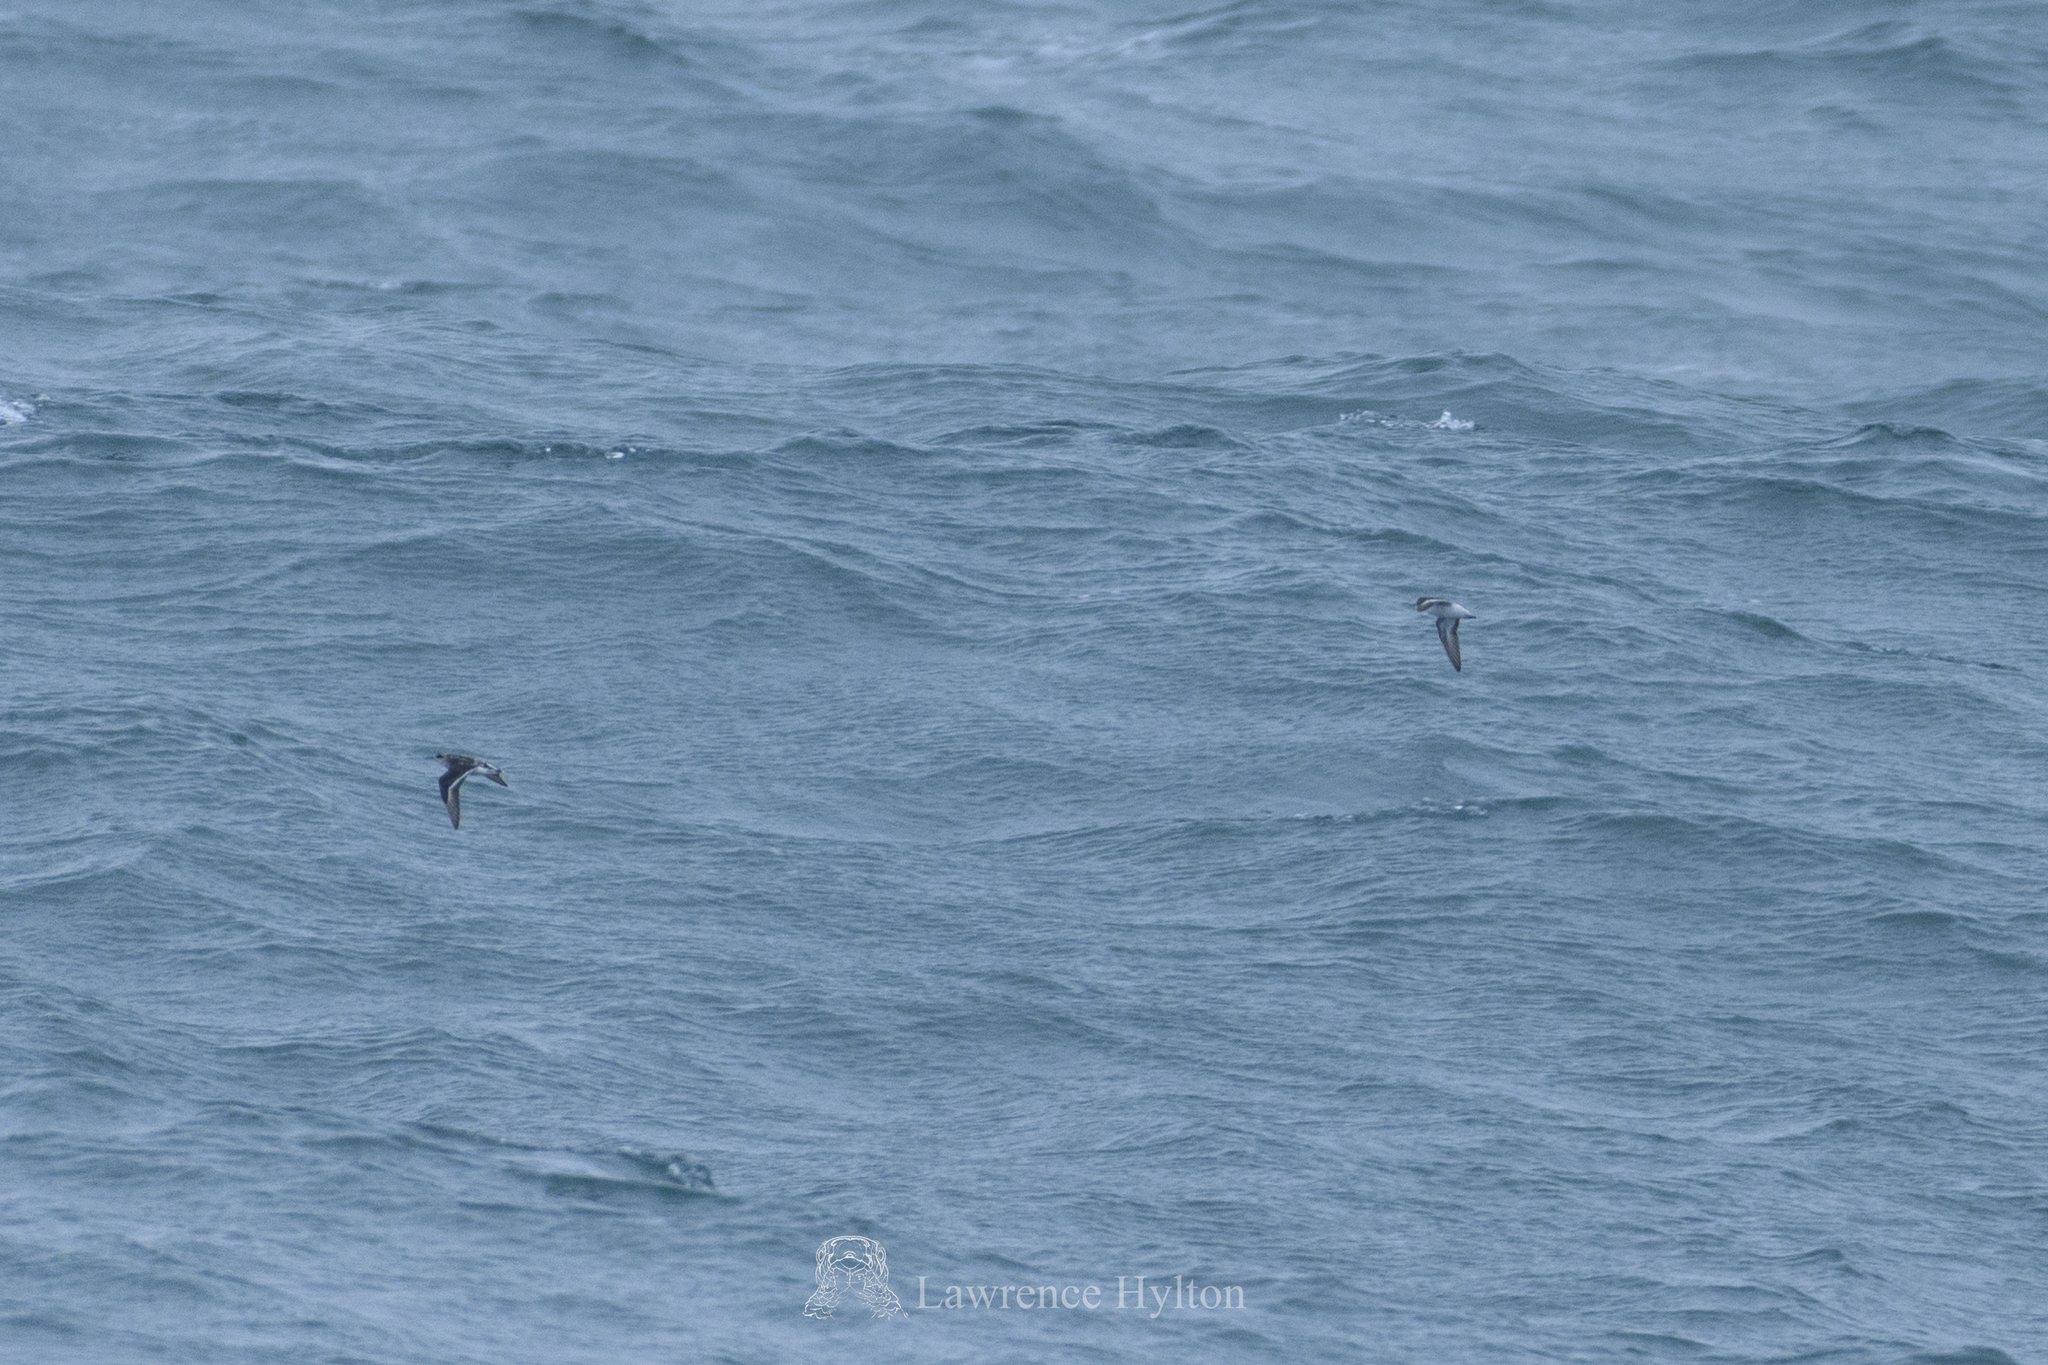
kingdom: Animalia
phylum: Chordata
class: Aves
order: Charadriiformes
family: Scolopacidae
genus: Phalaropus
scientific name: Phalaropus lobatus
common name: Red-necked phalarope
